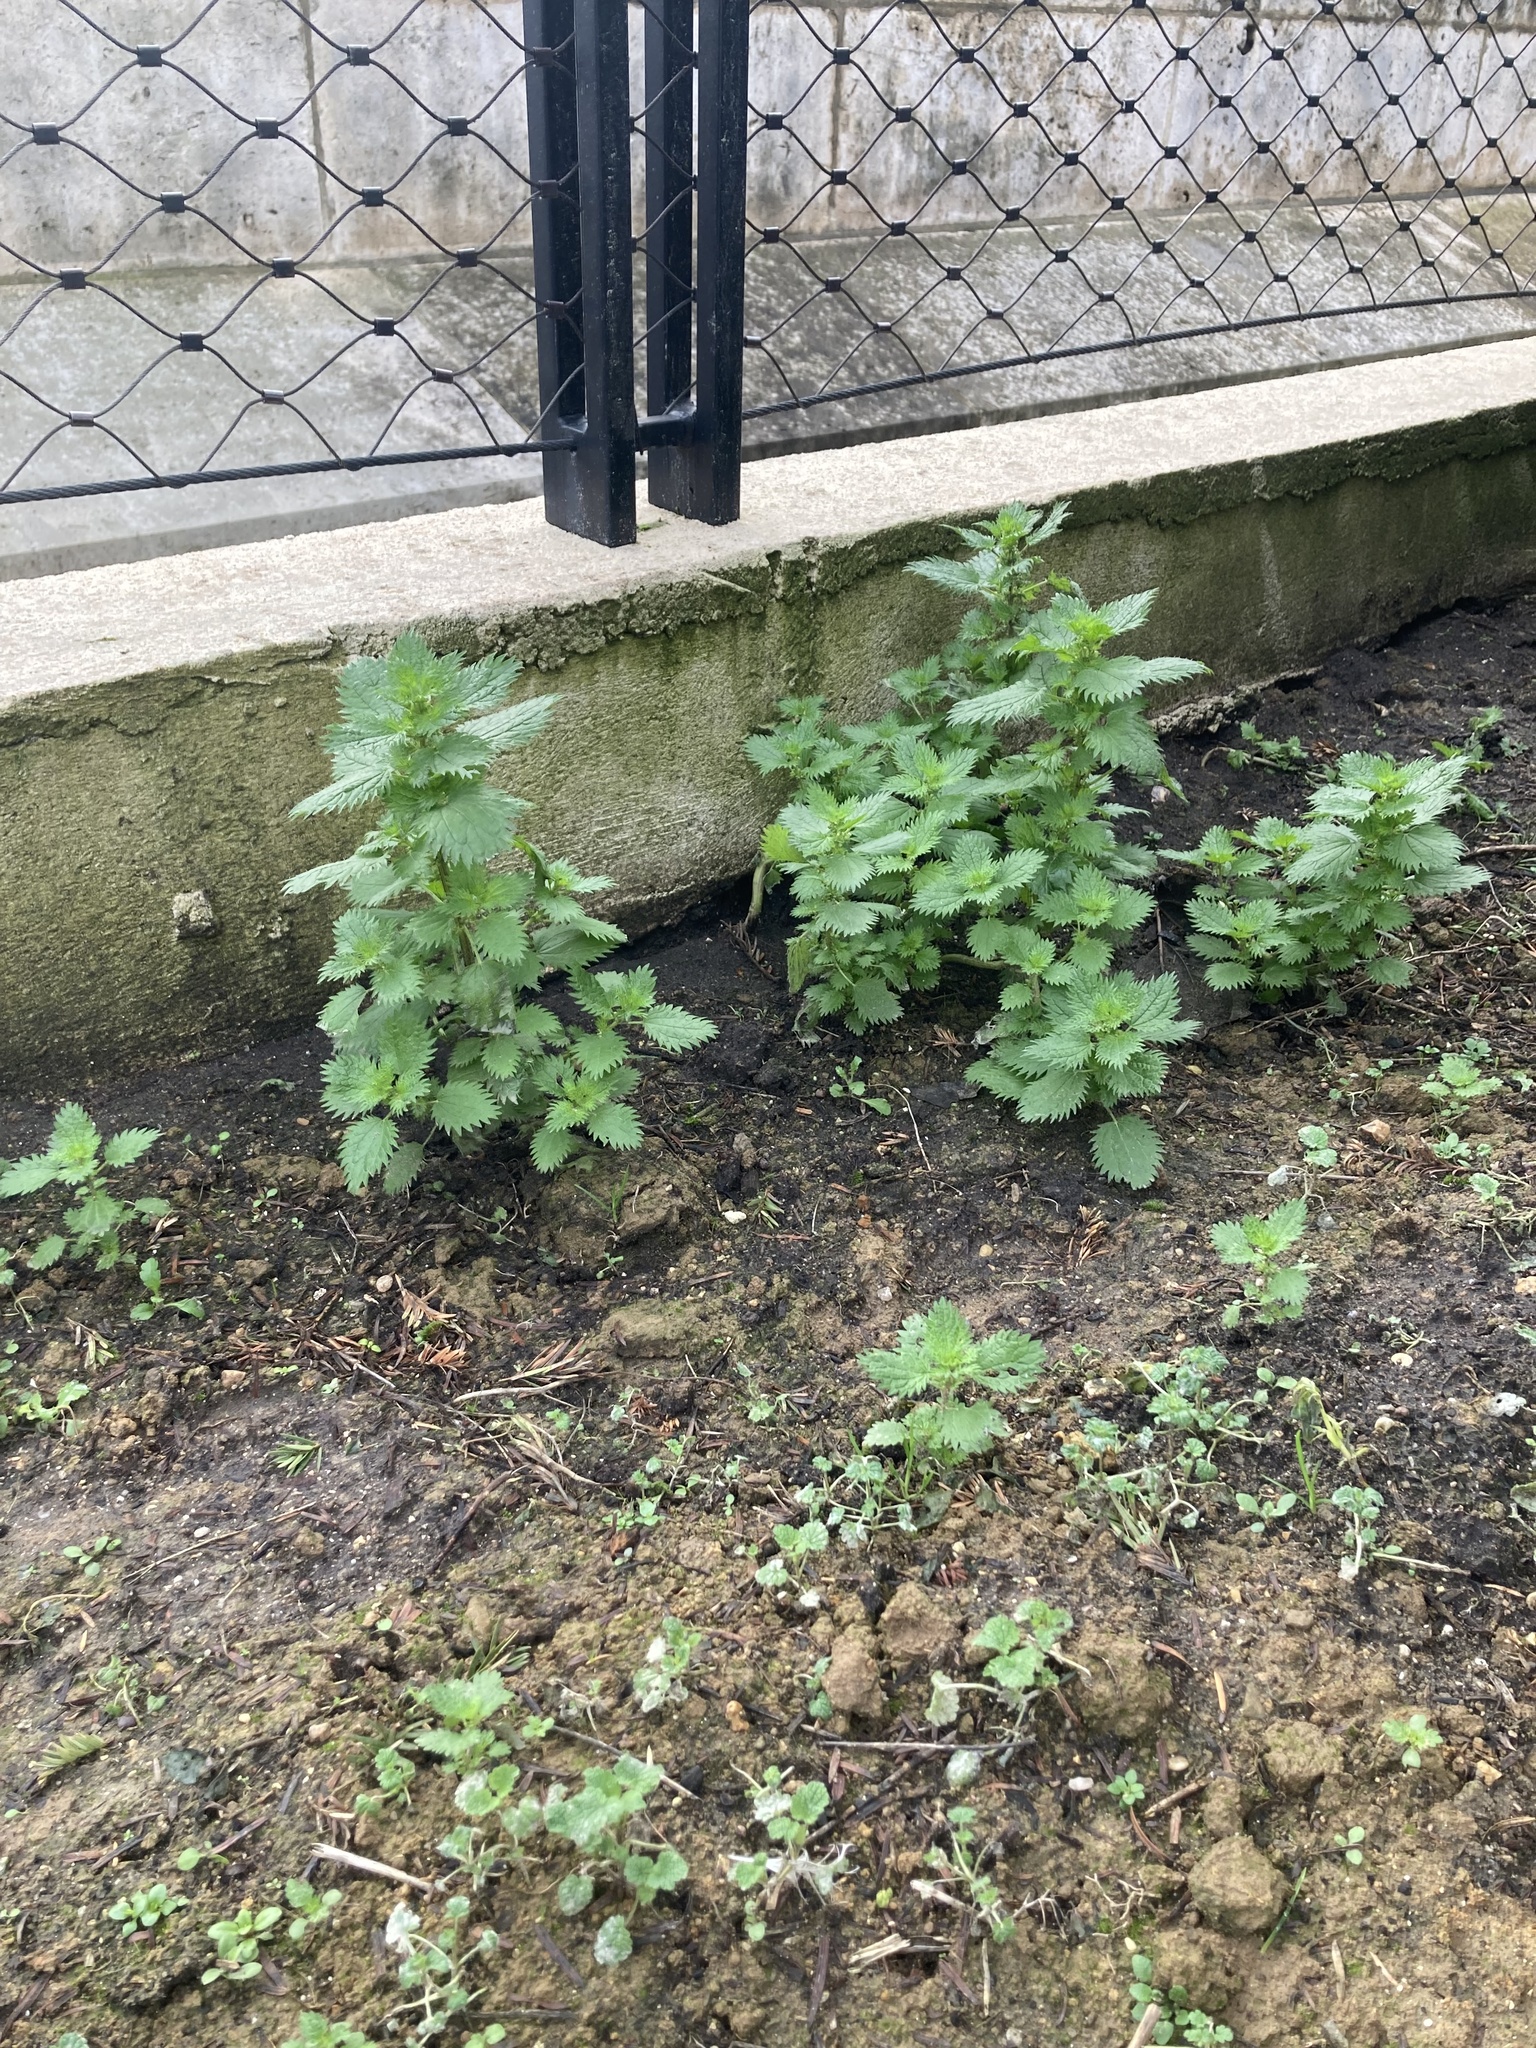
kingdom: Plantae
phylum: Tracheophyta
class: Magnoliopsida
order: Rosales
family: Urticaceae
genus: Urtica
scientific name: Urtica urens
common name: Dwarf nettle
